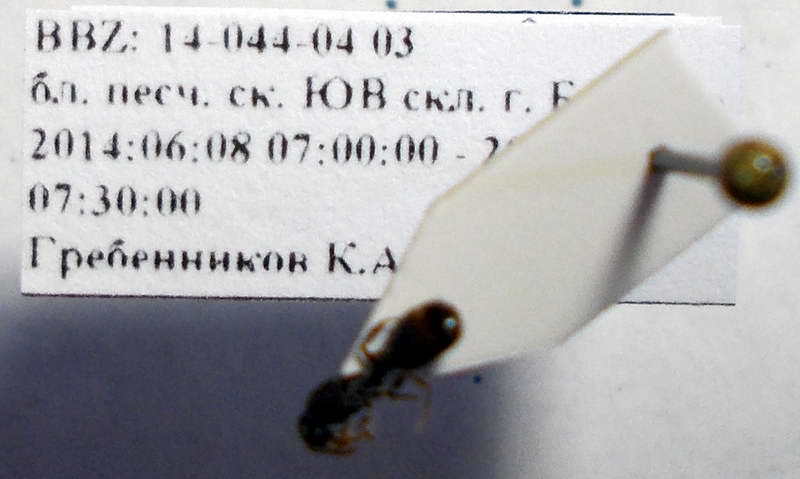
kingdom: Animalia
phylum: Arthropoda
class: Insecta
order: Hymenoptera
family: Formicidae
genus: Tetramorium
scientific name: Tetramorium chefketi
